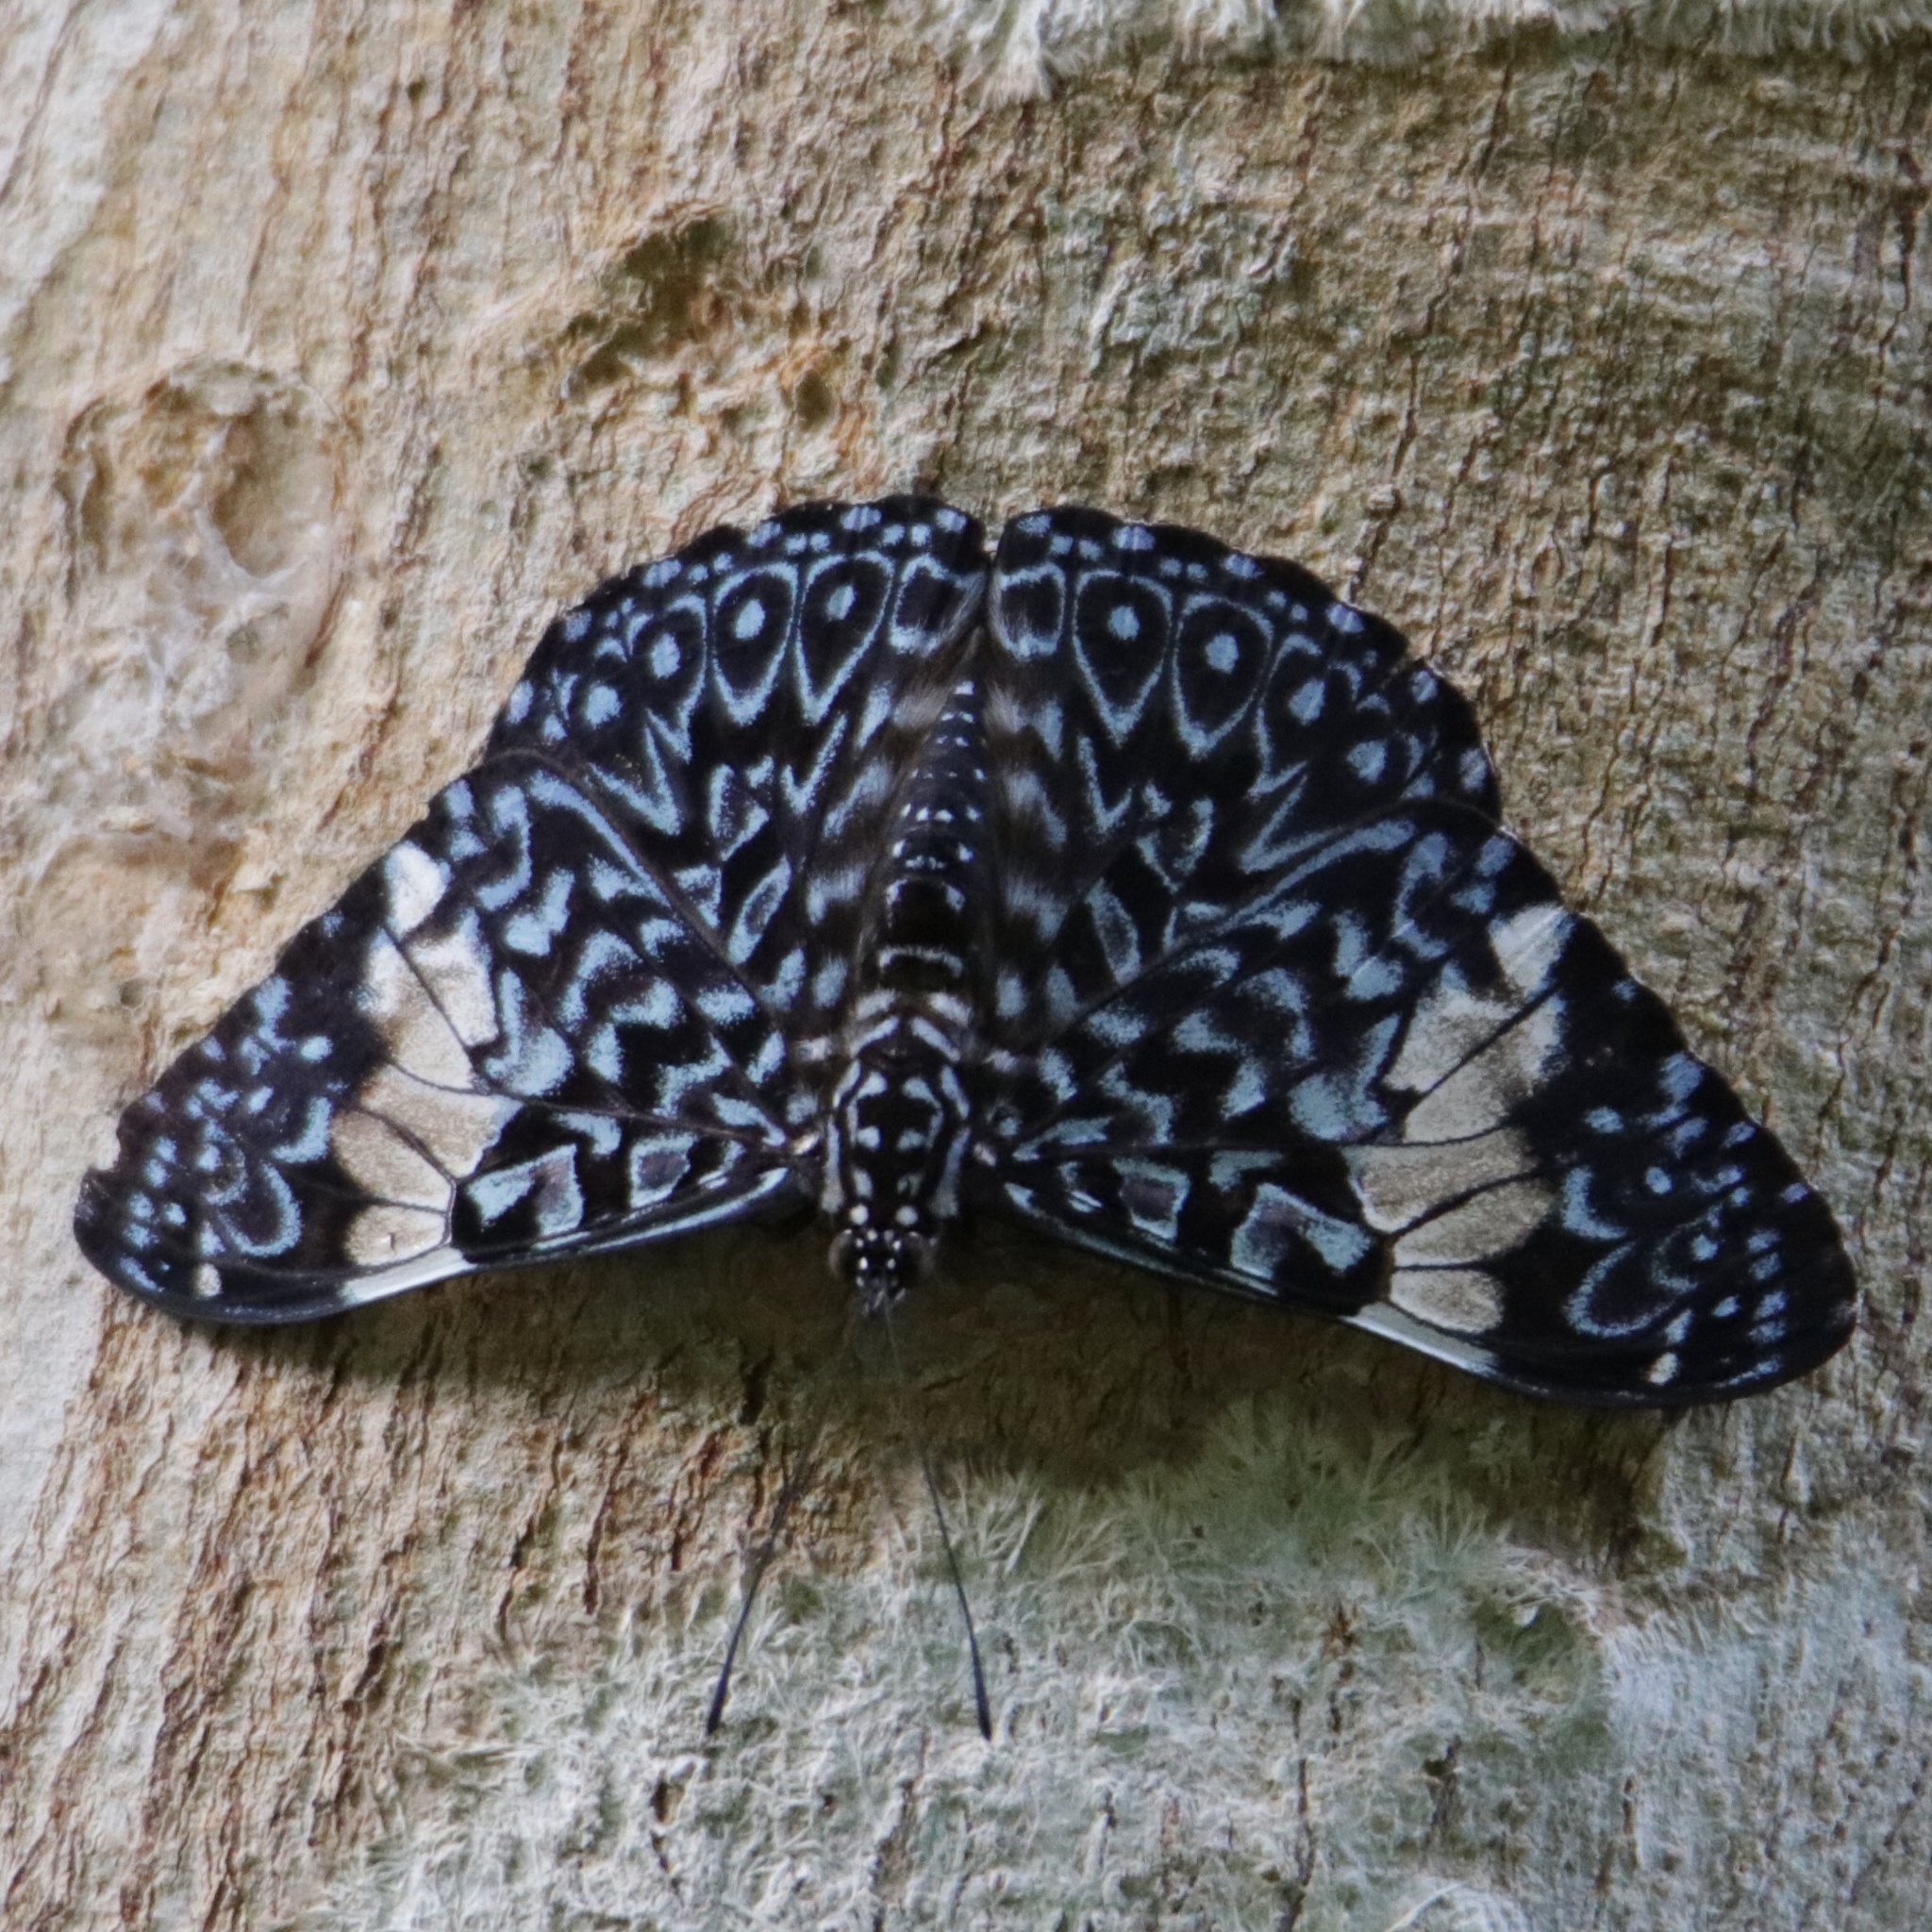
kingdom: Animalia
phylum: Arthropoda
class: Insecta
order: Lepidoptera
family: Nymphalidae
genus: Hamadryas
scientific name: Hamadryas amphinome
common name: Red cracker
